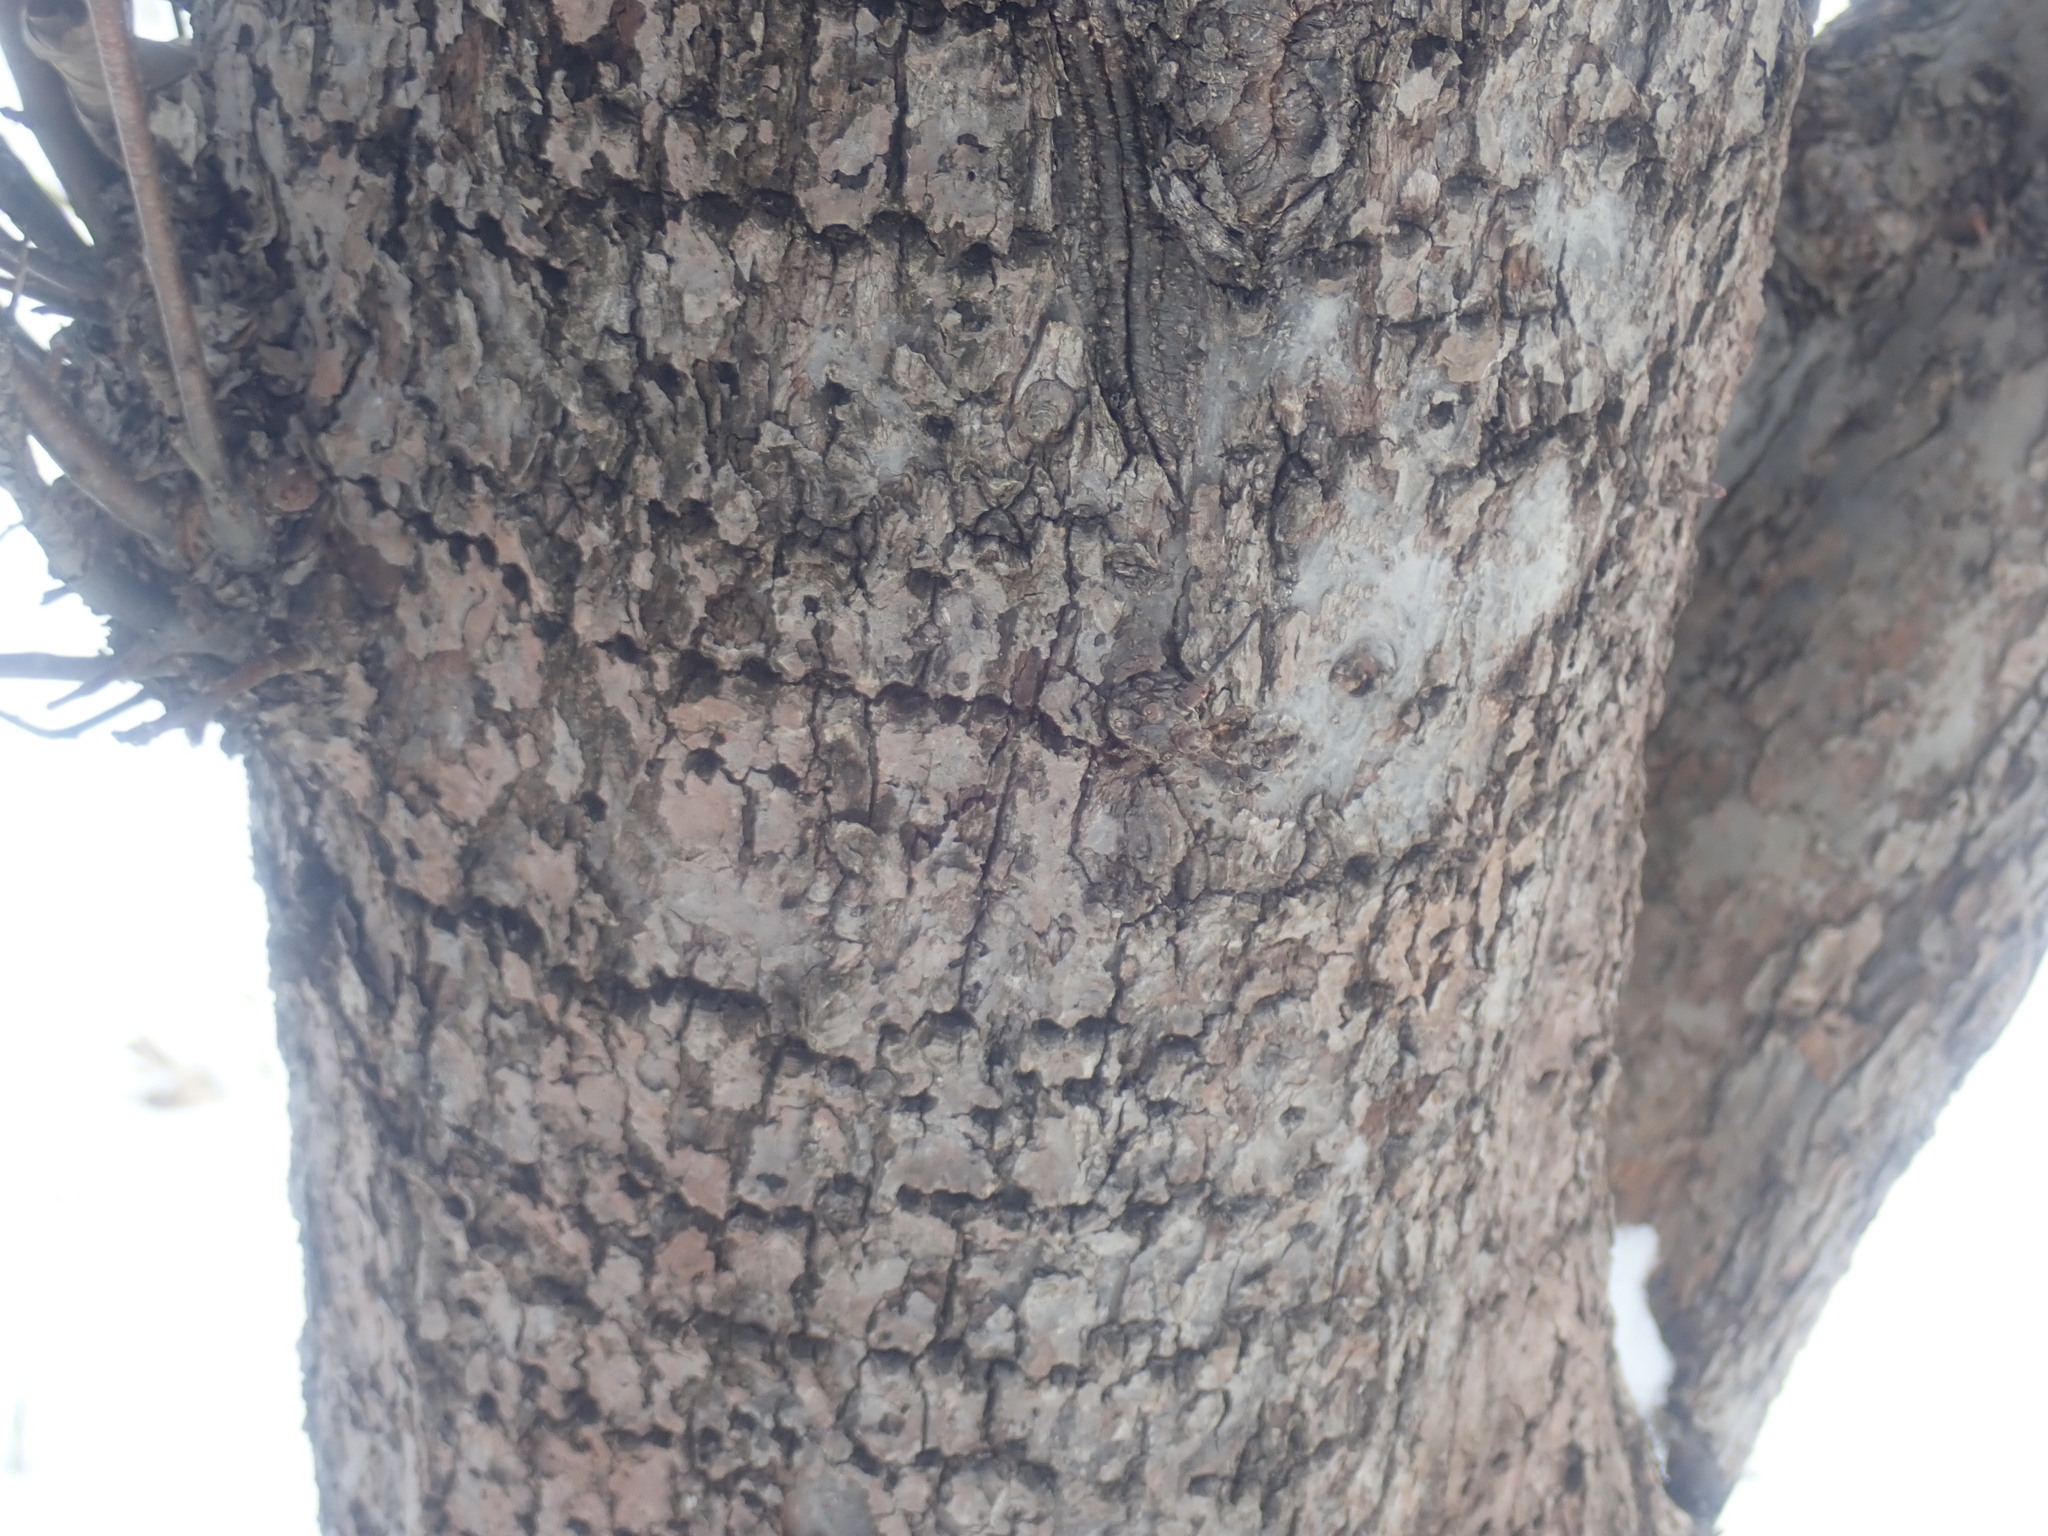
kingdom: Animalia
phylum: Chordata
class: Aves
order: Piciformes
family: Picidae
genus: Sphyrapicus
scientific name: Sphyrapicus varius
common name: Yellow-bellied sapsucker
